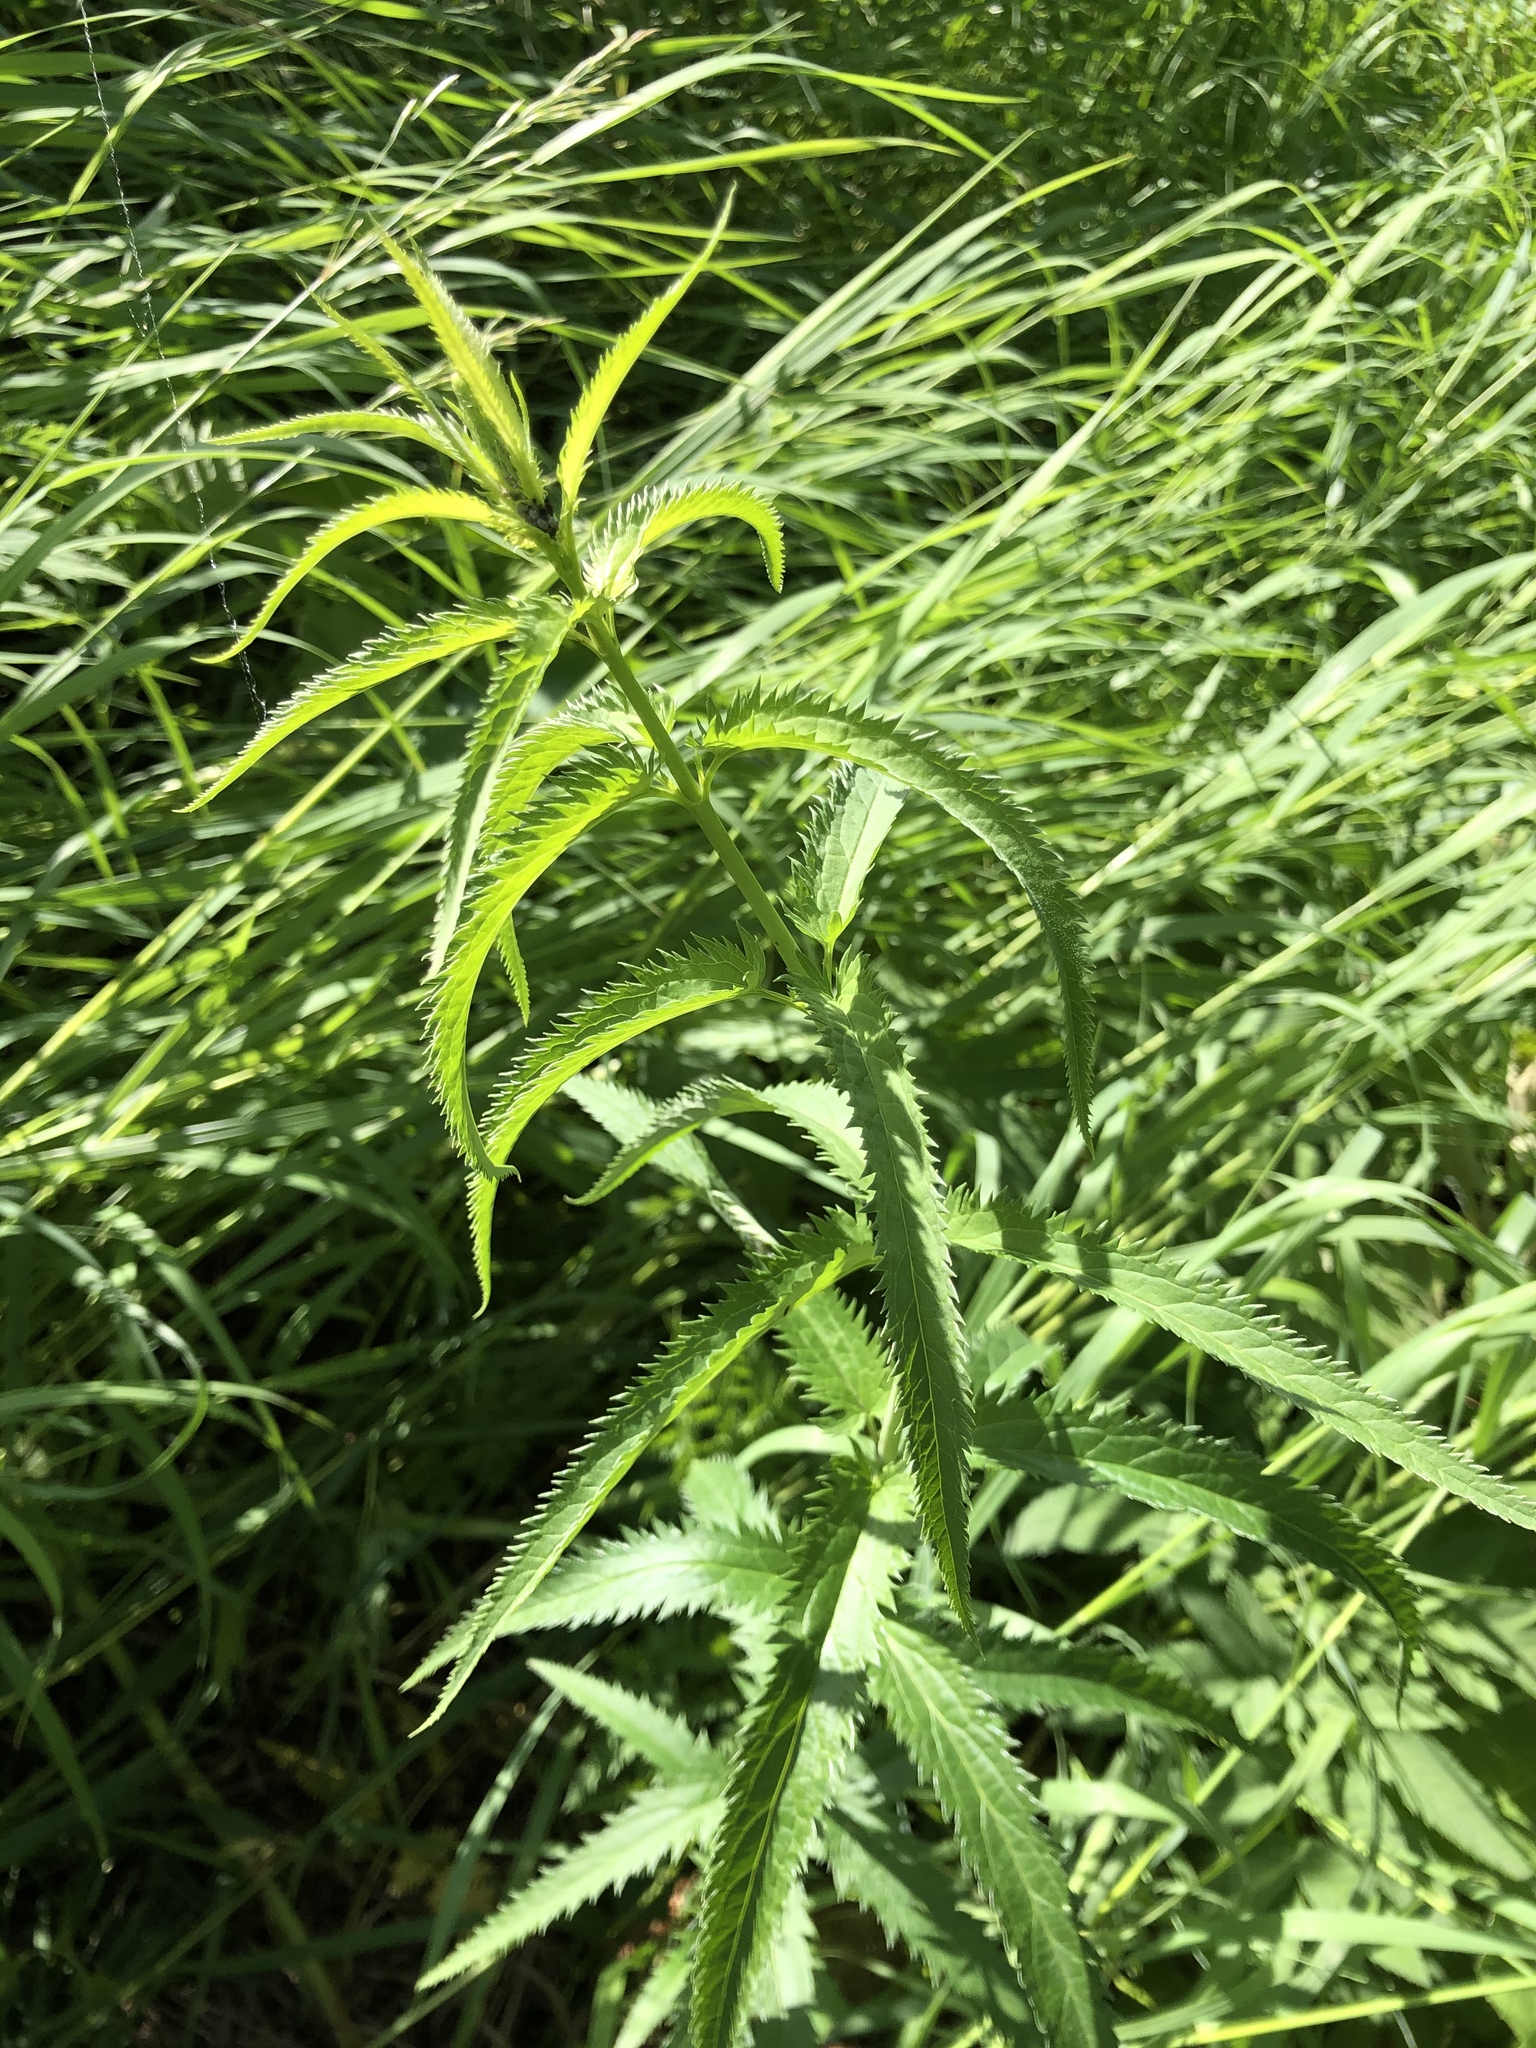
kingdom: Plantae
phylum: Tracheophyta
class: Magnoliopsida
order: Lamiales
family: Plantaginaceae
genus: Veronica
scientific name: Veronica longifolia
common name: Garden speedwell
